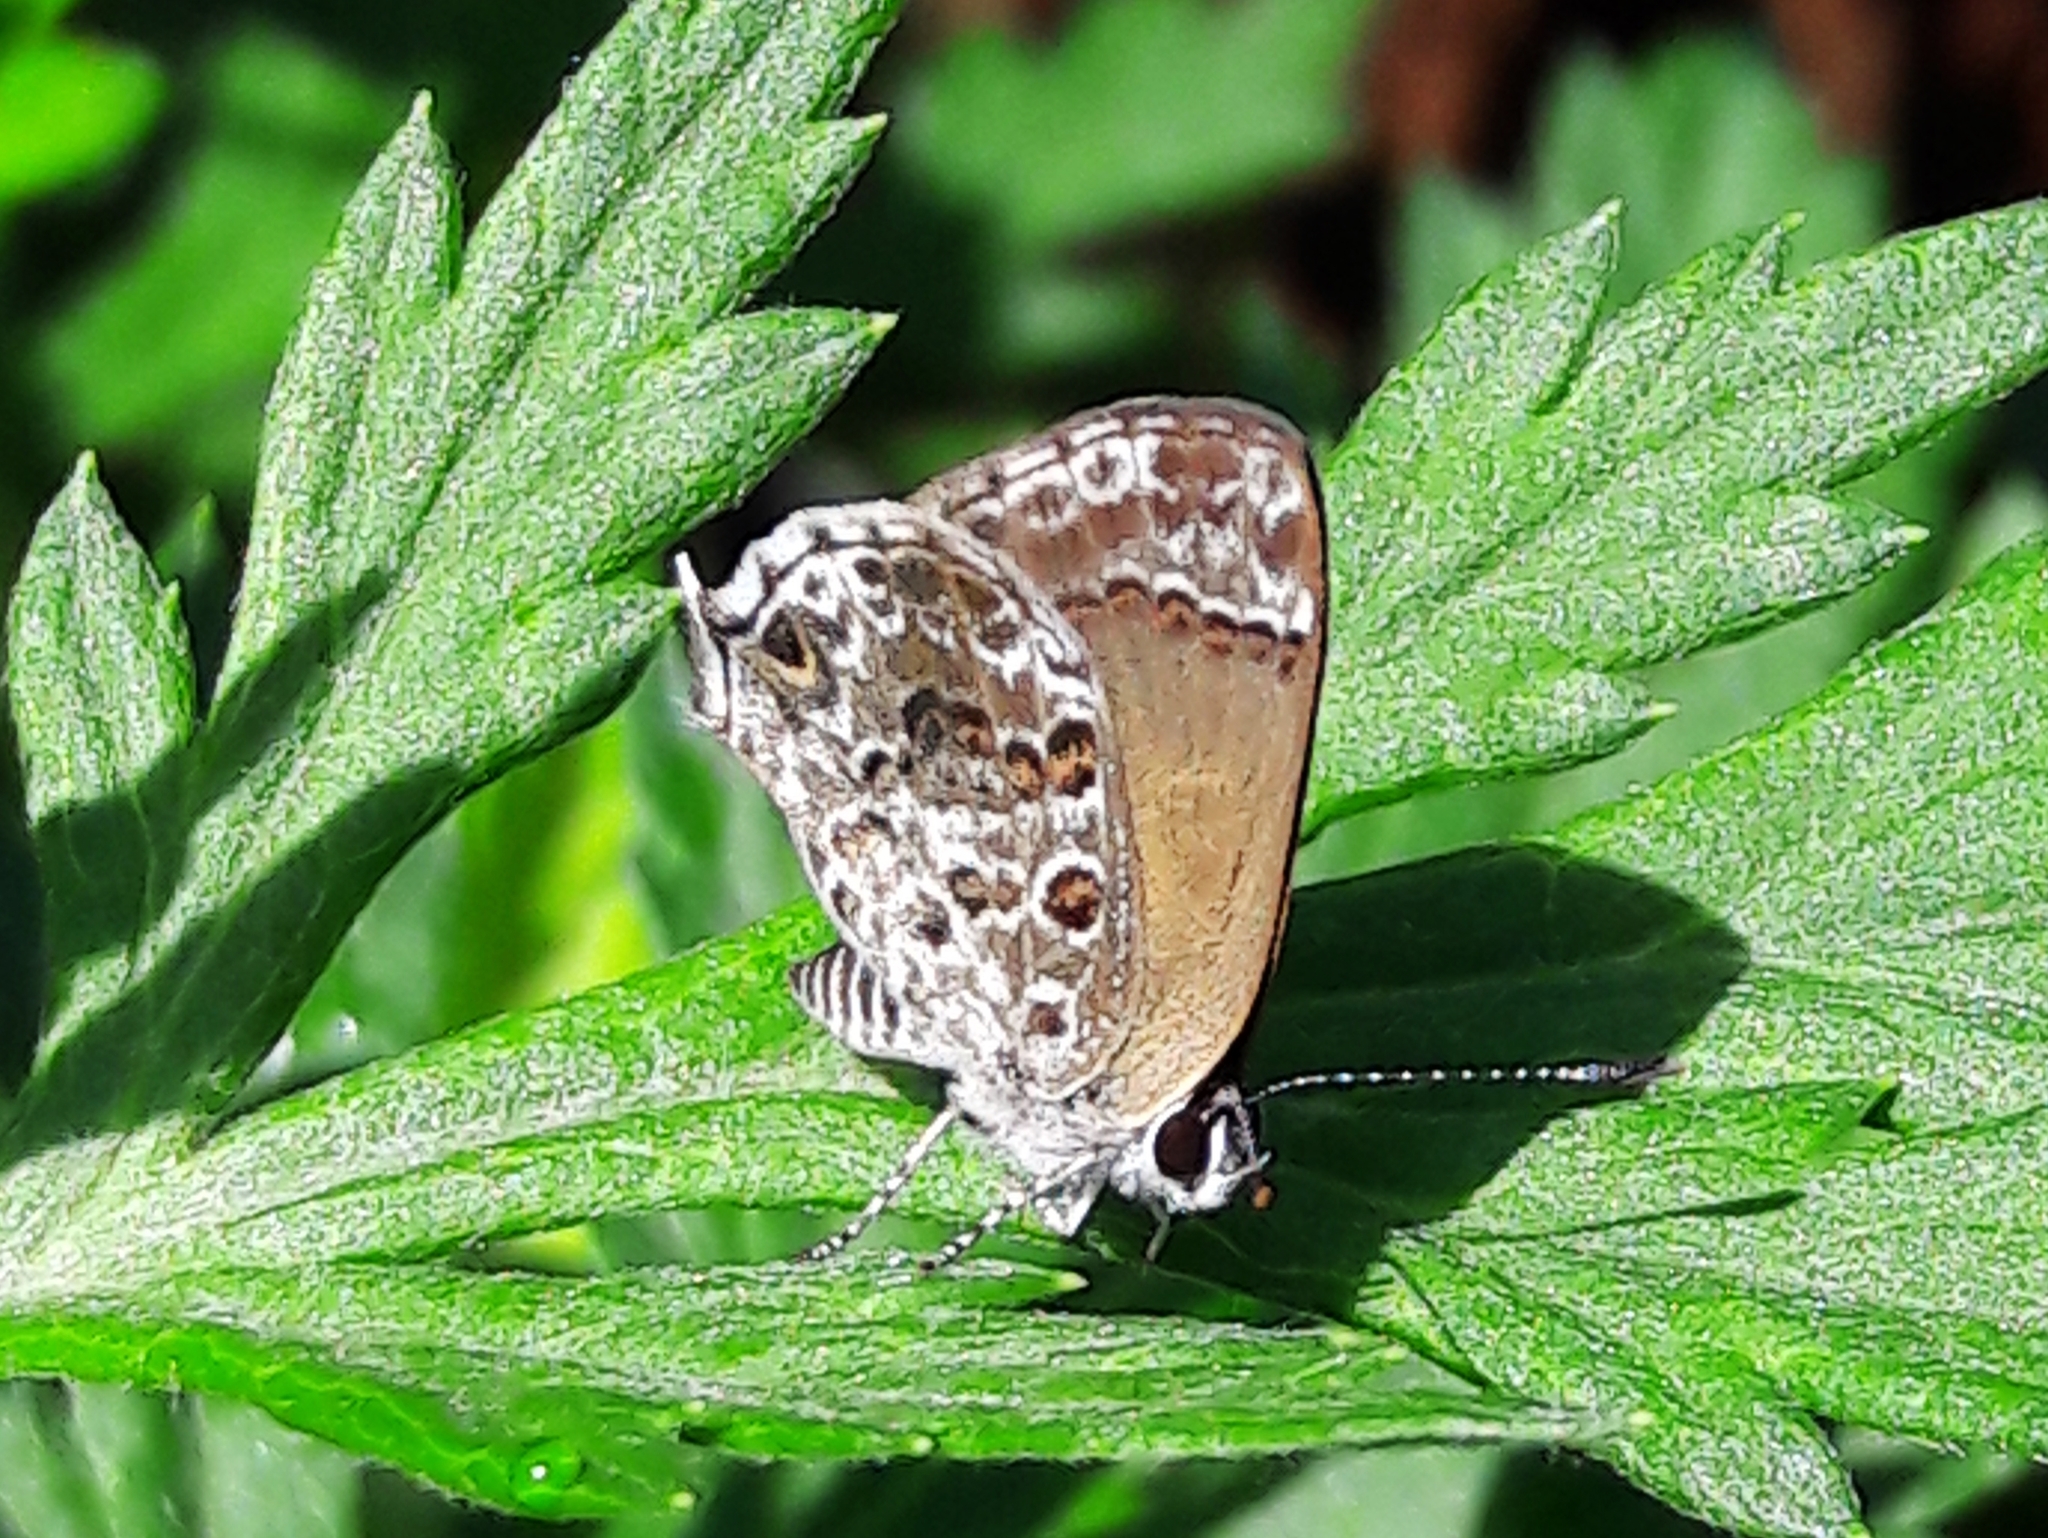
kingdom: Animalia
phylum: Arthropoda
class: Insecta
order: Lepidoptera
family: Lycaenidae
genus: Strymon
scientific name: Strymon astiocha
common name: Gray-spotted scrub-hairstreak
